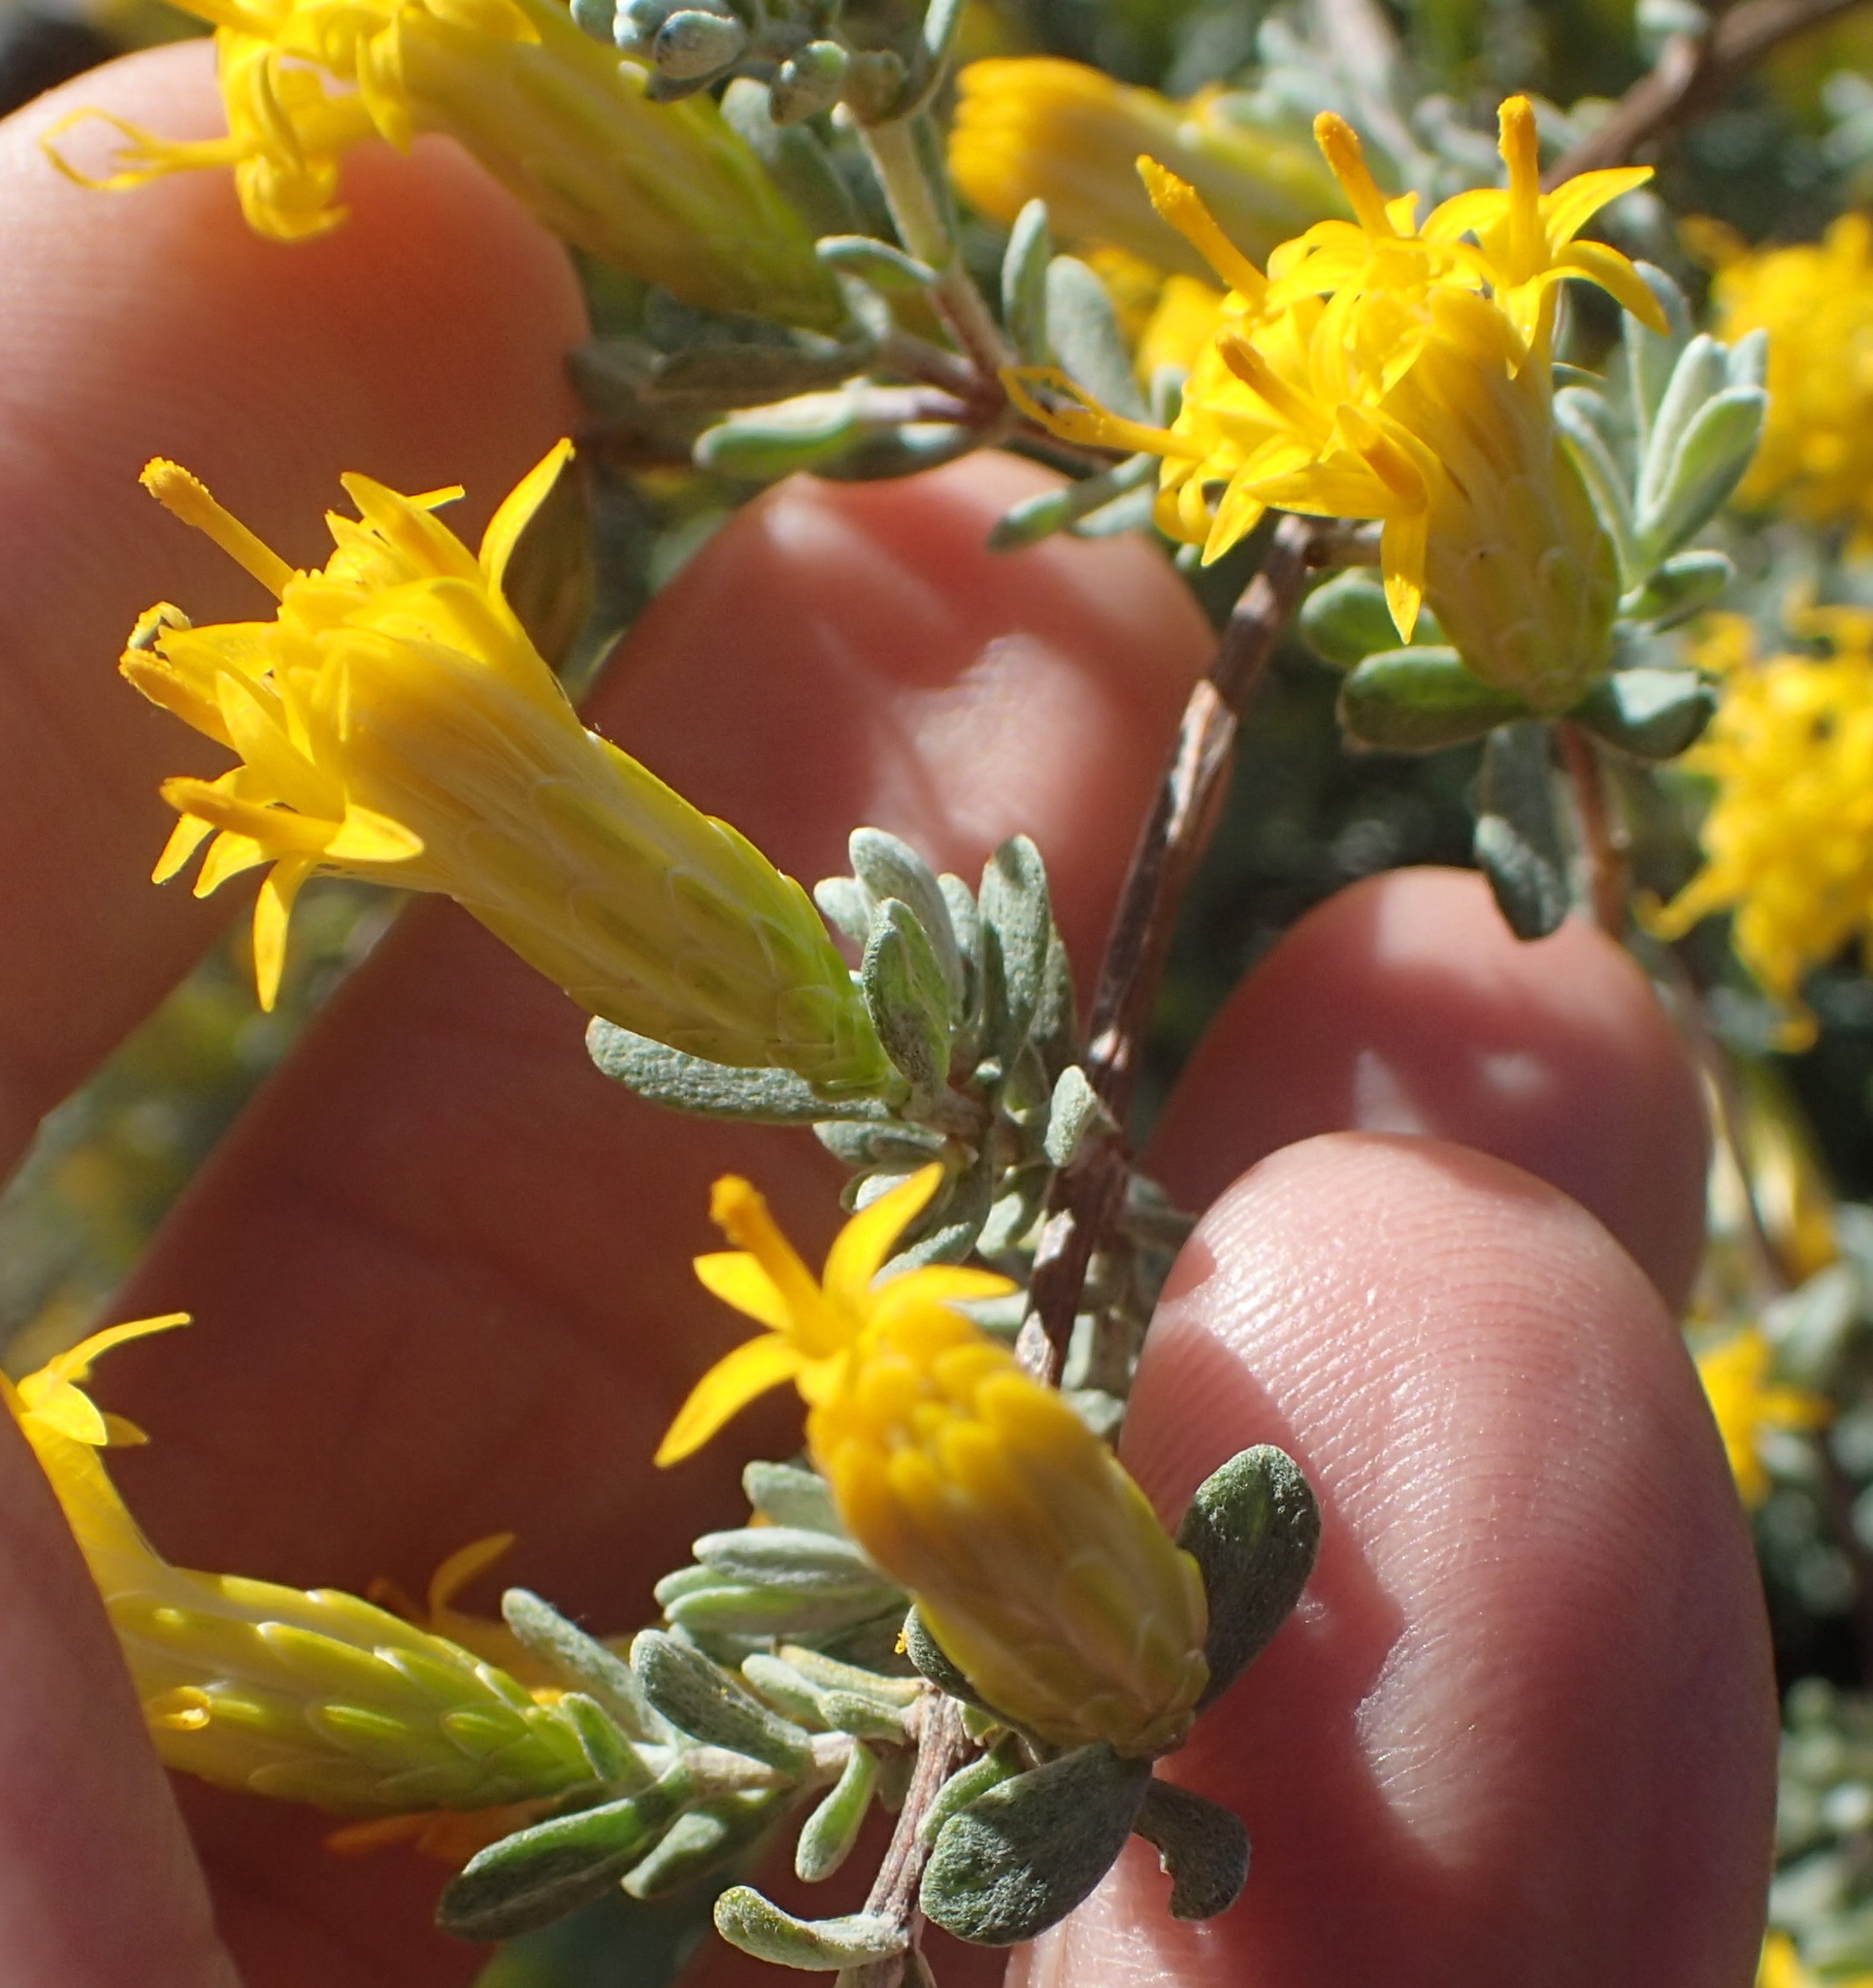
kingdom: Plantae
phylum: Tracheophyta
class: Magnoliopsida
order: Asterales
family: Asteraceae
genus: Pteronia
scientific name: Pteronia incana
